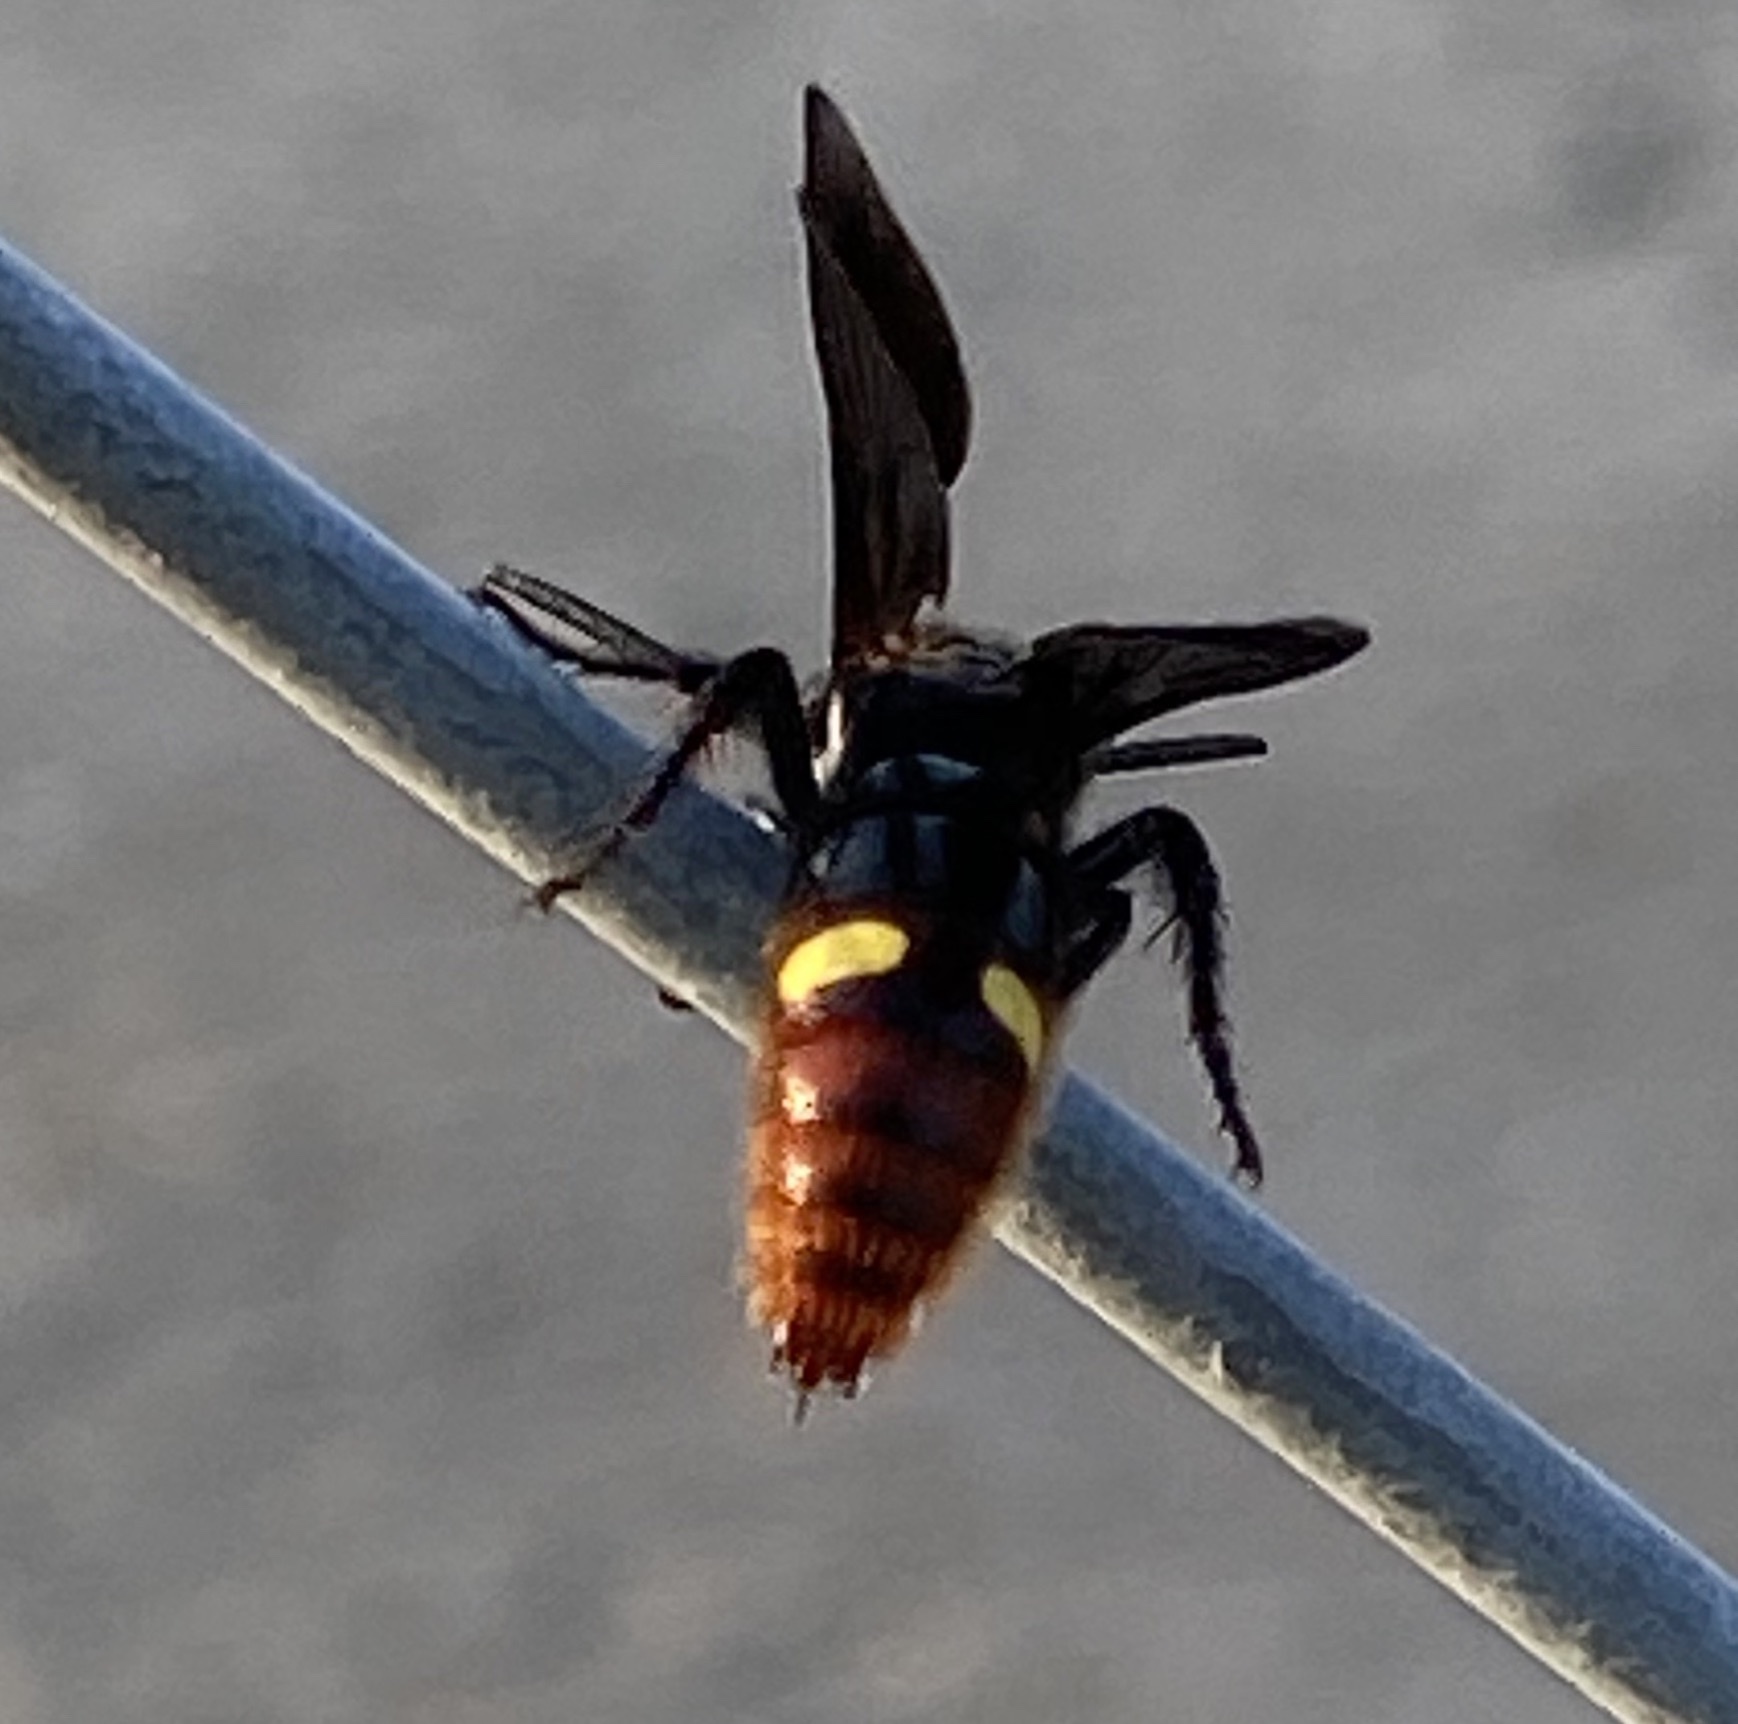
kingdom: Animalia
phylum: Arthropoda
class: Insecta
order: Hymenoptera
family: Scoliidae
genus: Scolia
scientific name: Scolia dubia
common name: Blue-winged scoliid wasp
